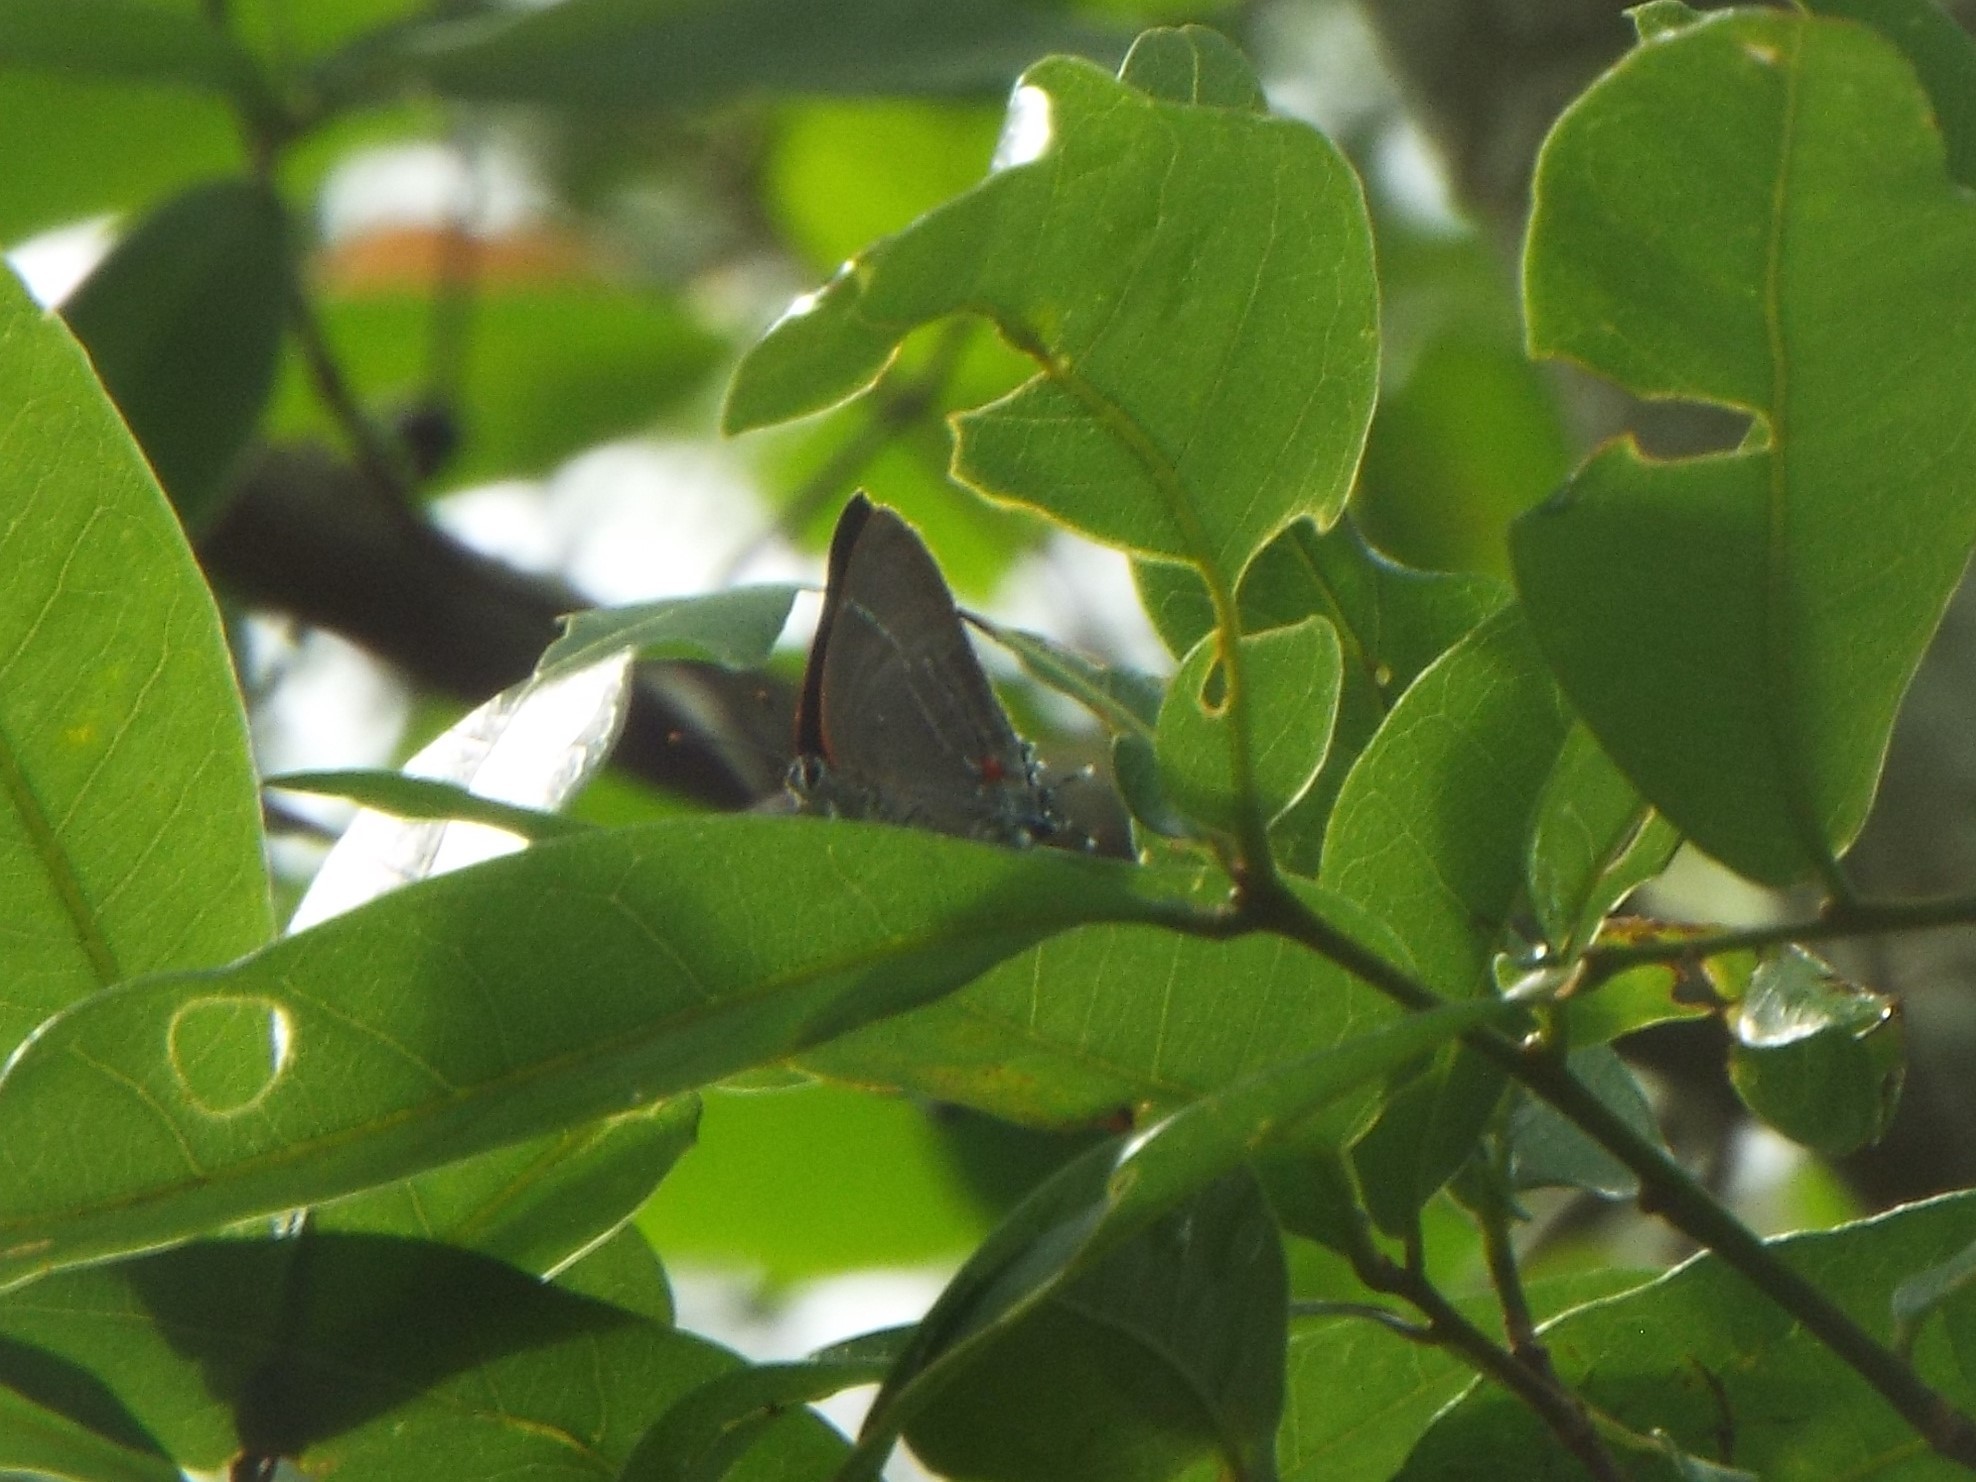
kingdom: Animalia
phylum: Arthropoda
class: Insecta
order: Lepidoptera
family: Lycaenidae
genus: Parrhasius
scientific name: Parrhasius m-album
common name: White m hairstreak
